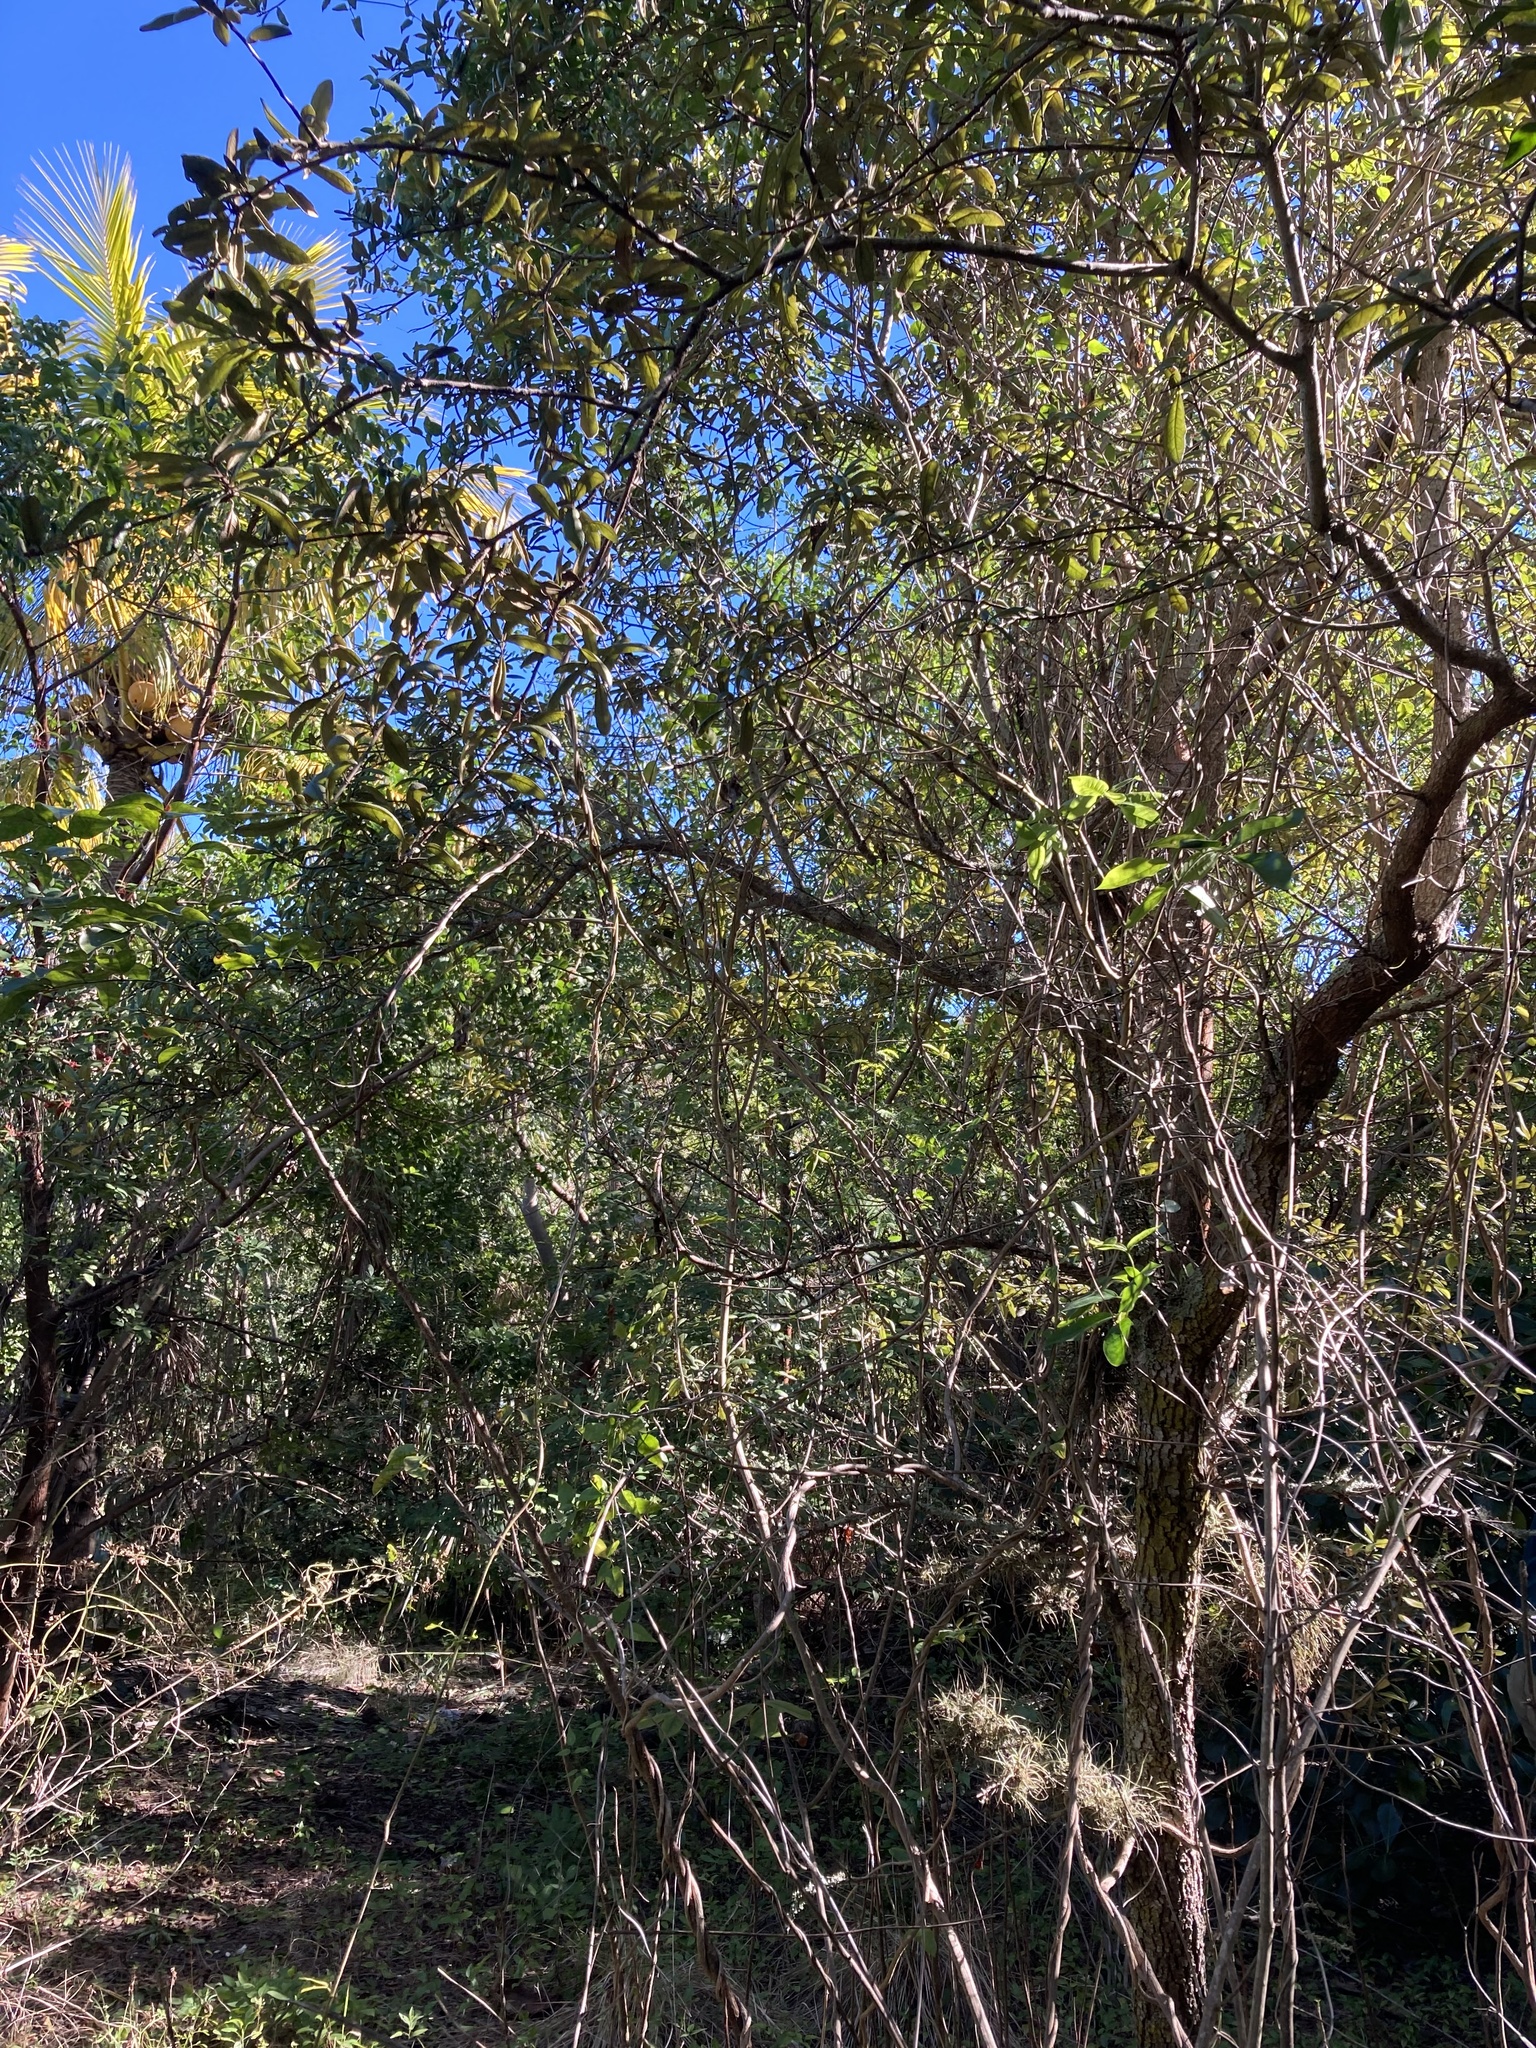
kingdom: Plantae
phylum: Tracheophyta
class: Magnoliopsida
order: Fagales
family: Fagaceae
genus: Quercus
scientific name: Quercus geminata
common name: Sand live oak
